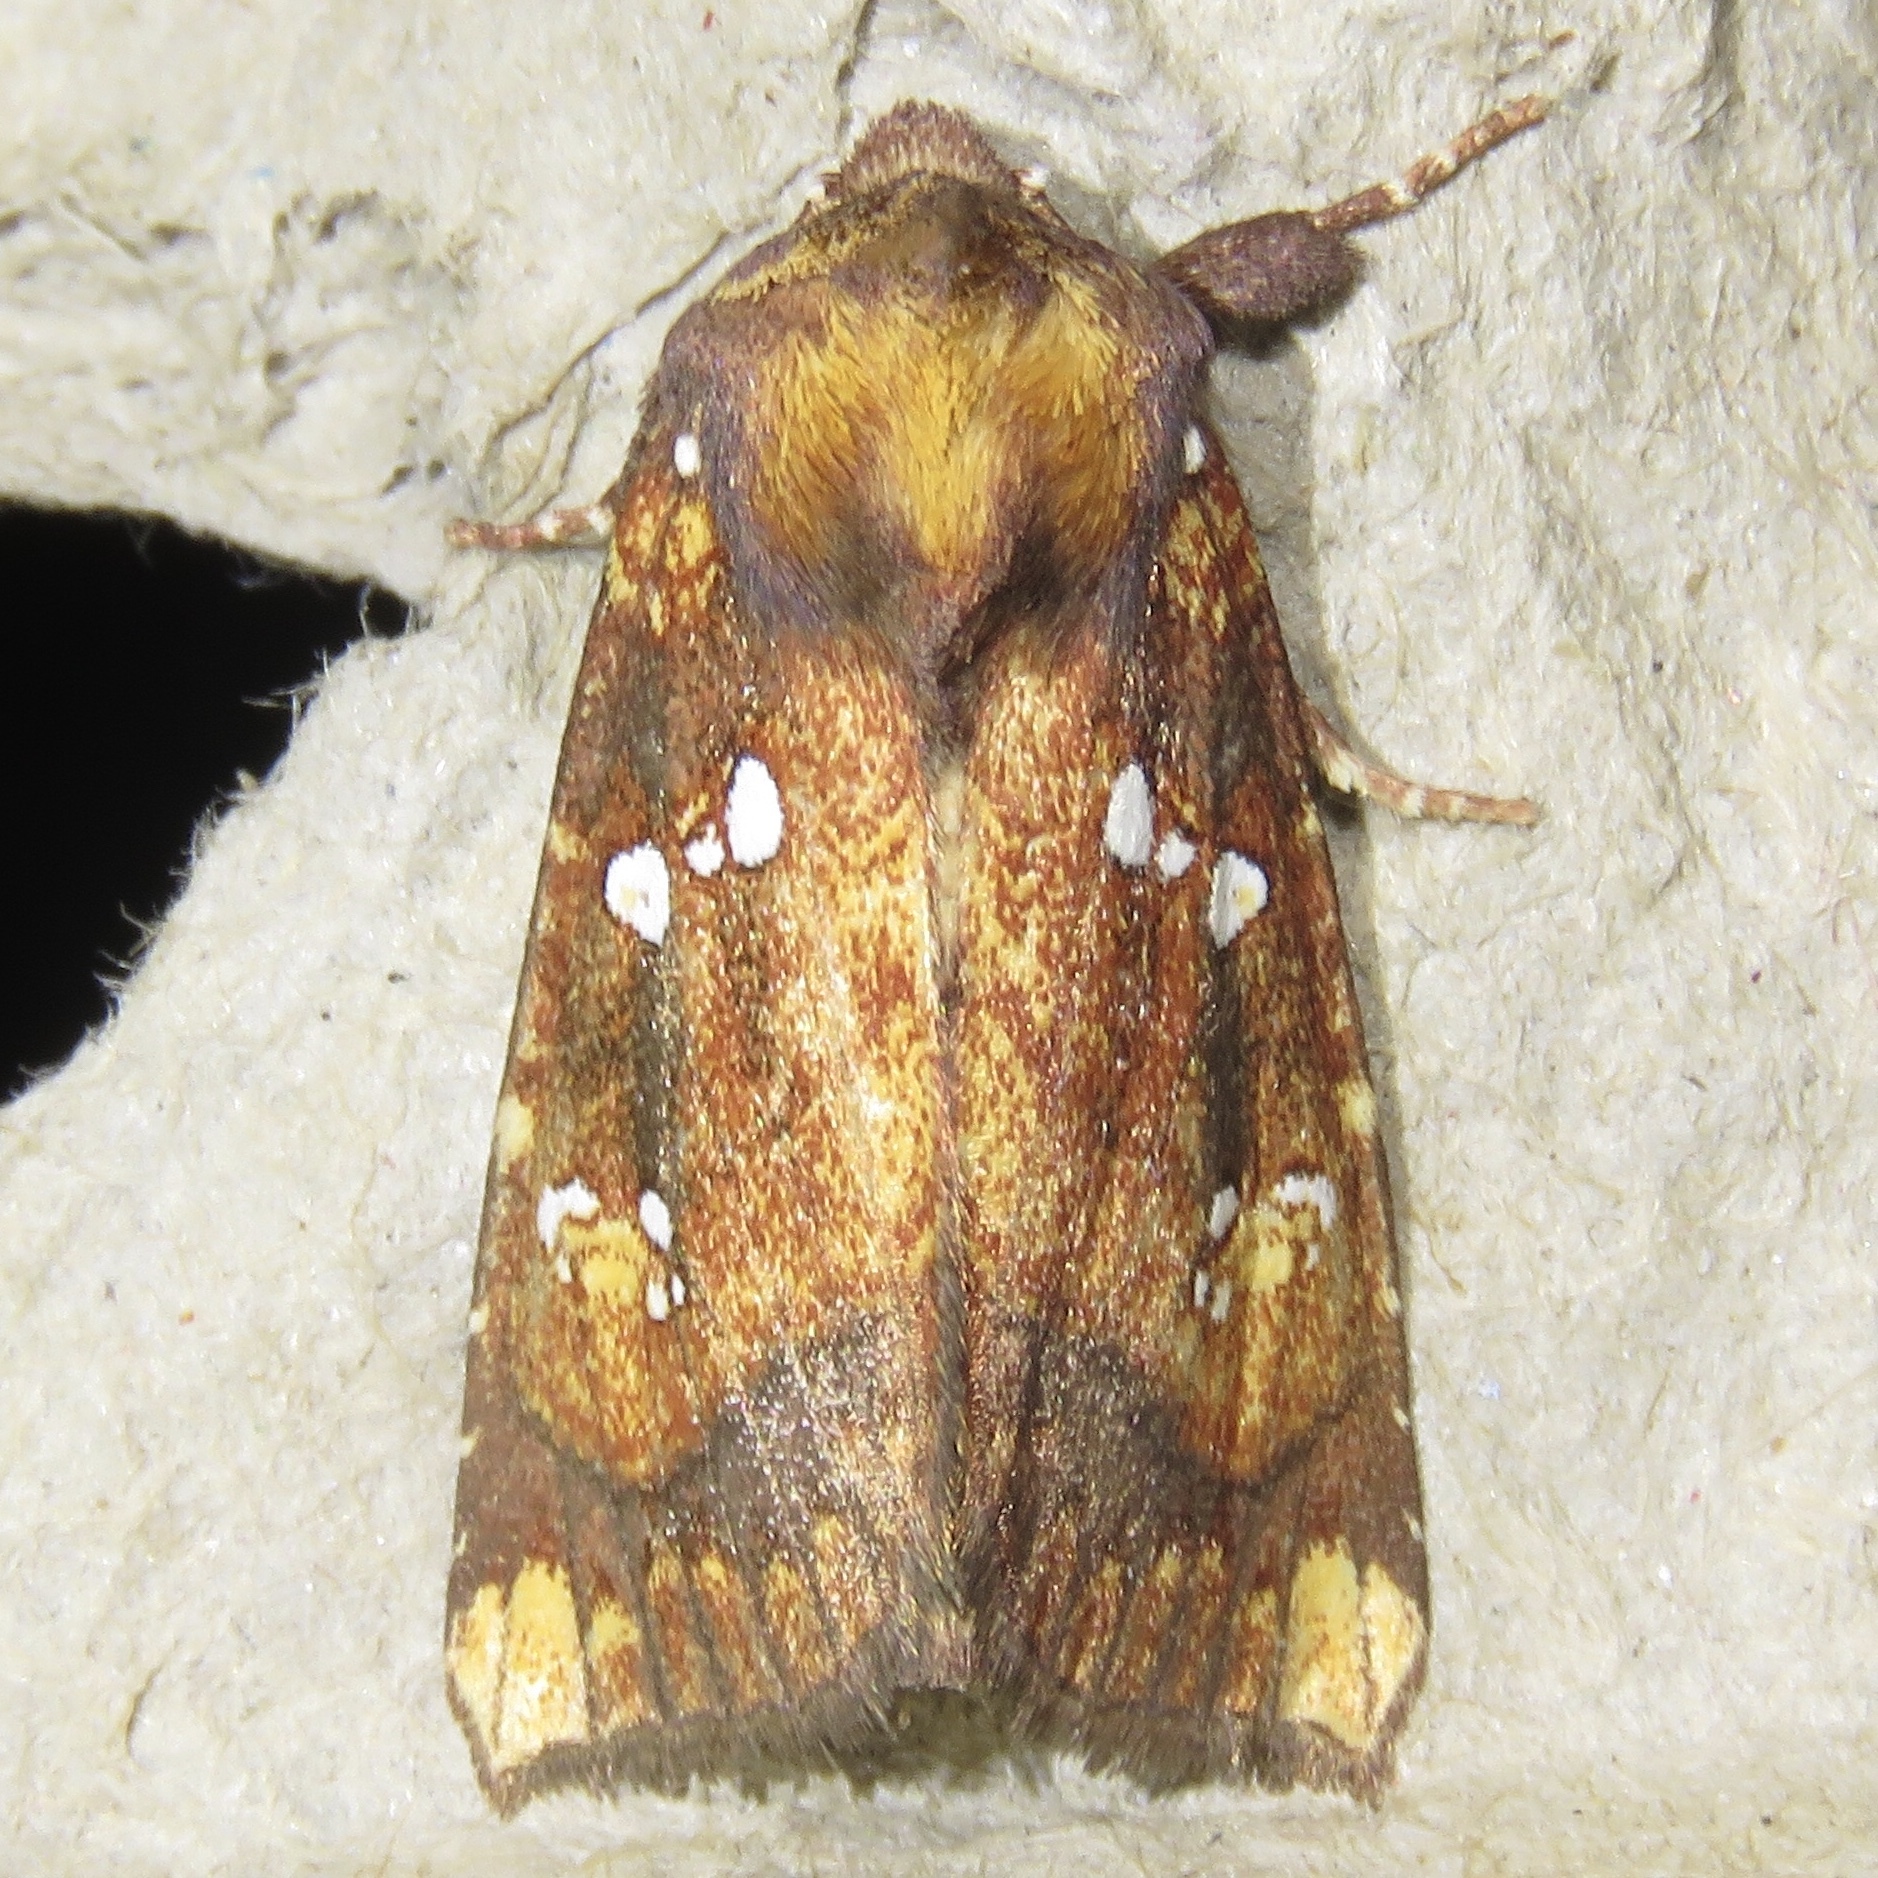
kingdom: Animalia
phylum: Arthropoda
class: Insecta
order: Lepidoptera
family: Noctuidae
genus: Papaipema
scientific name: Papaipema arctivorens
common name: Northern burdock borer moth
